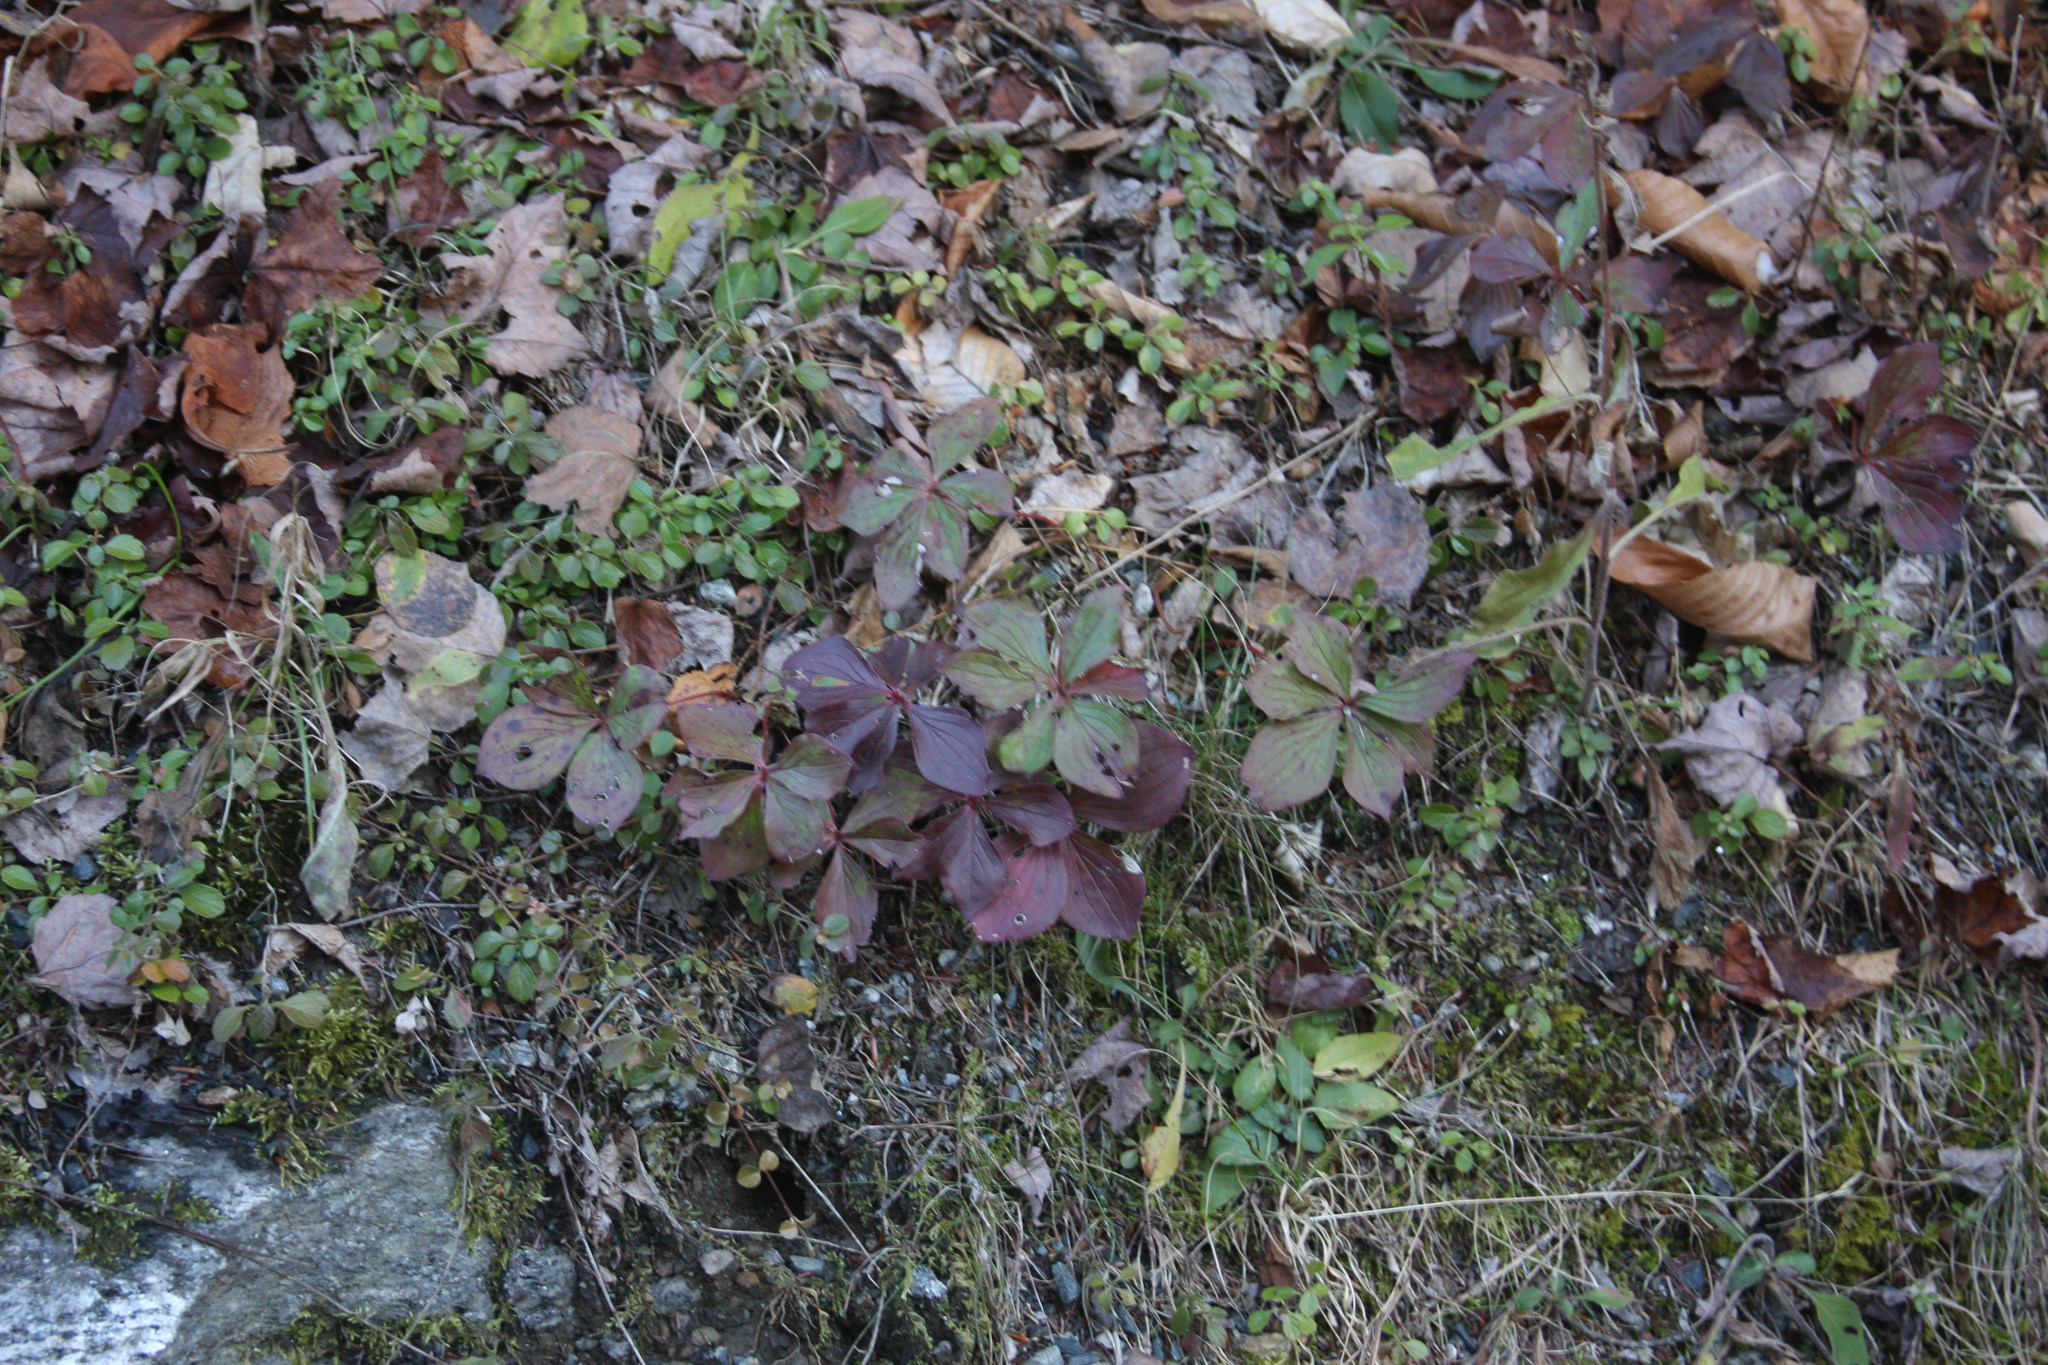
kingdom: Plantae
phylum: Tracheophyta
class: Magnoliopsida
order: Cornales
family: Cornaceae
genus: Cornus
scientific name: Cornus canadensis
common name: Creeping dogwood
